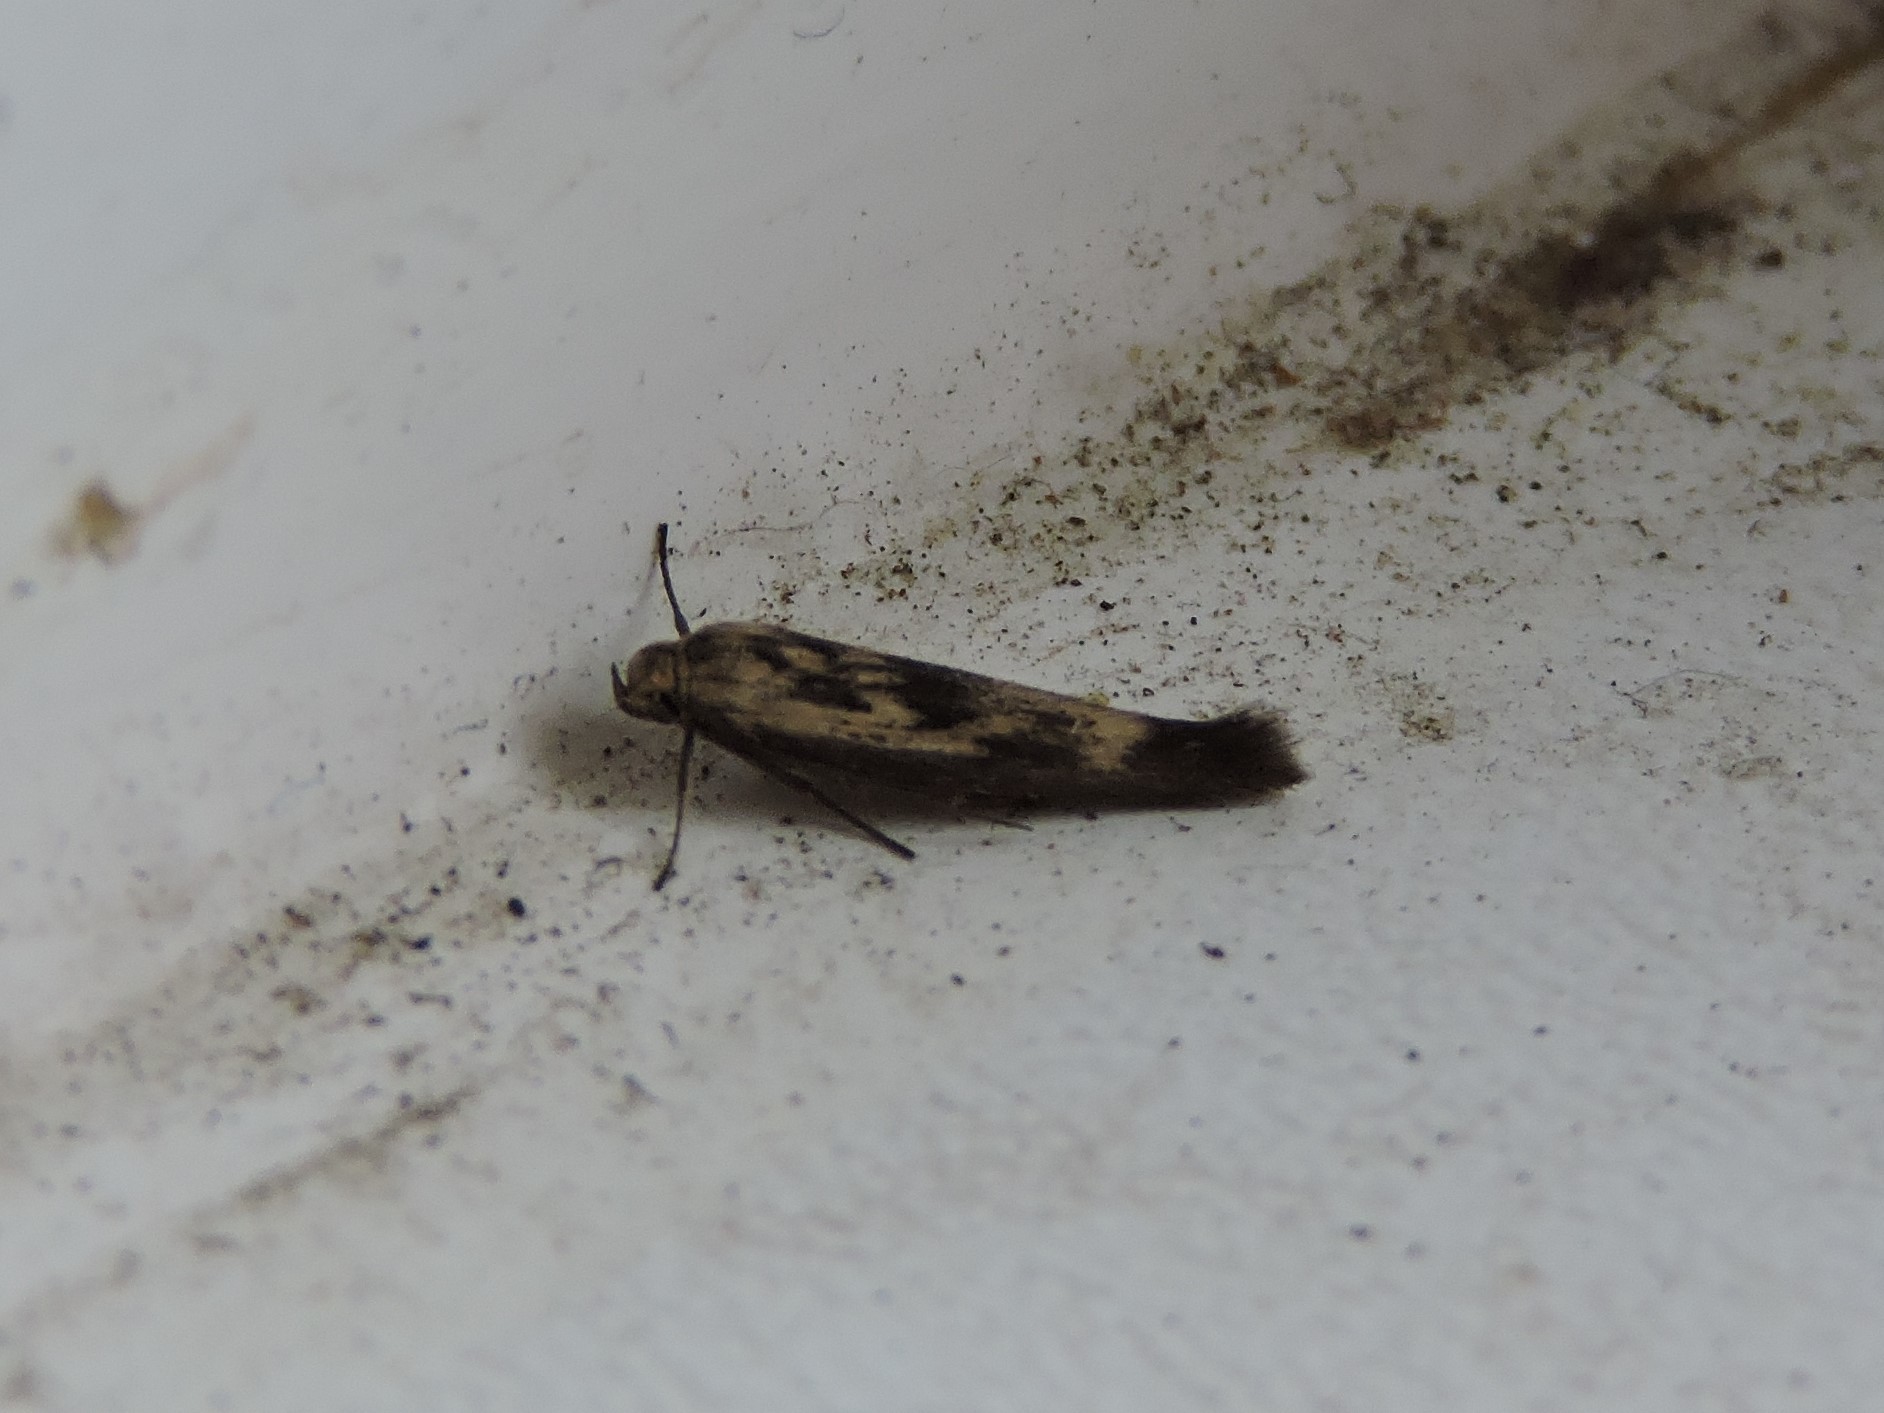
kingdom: Animalia
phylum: Arthropoda
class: Insecta
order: Lepidoptera
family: Scythrididae
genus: Scythris
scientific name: Scythris limbella
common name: Goosefoot owlet
